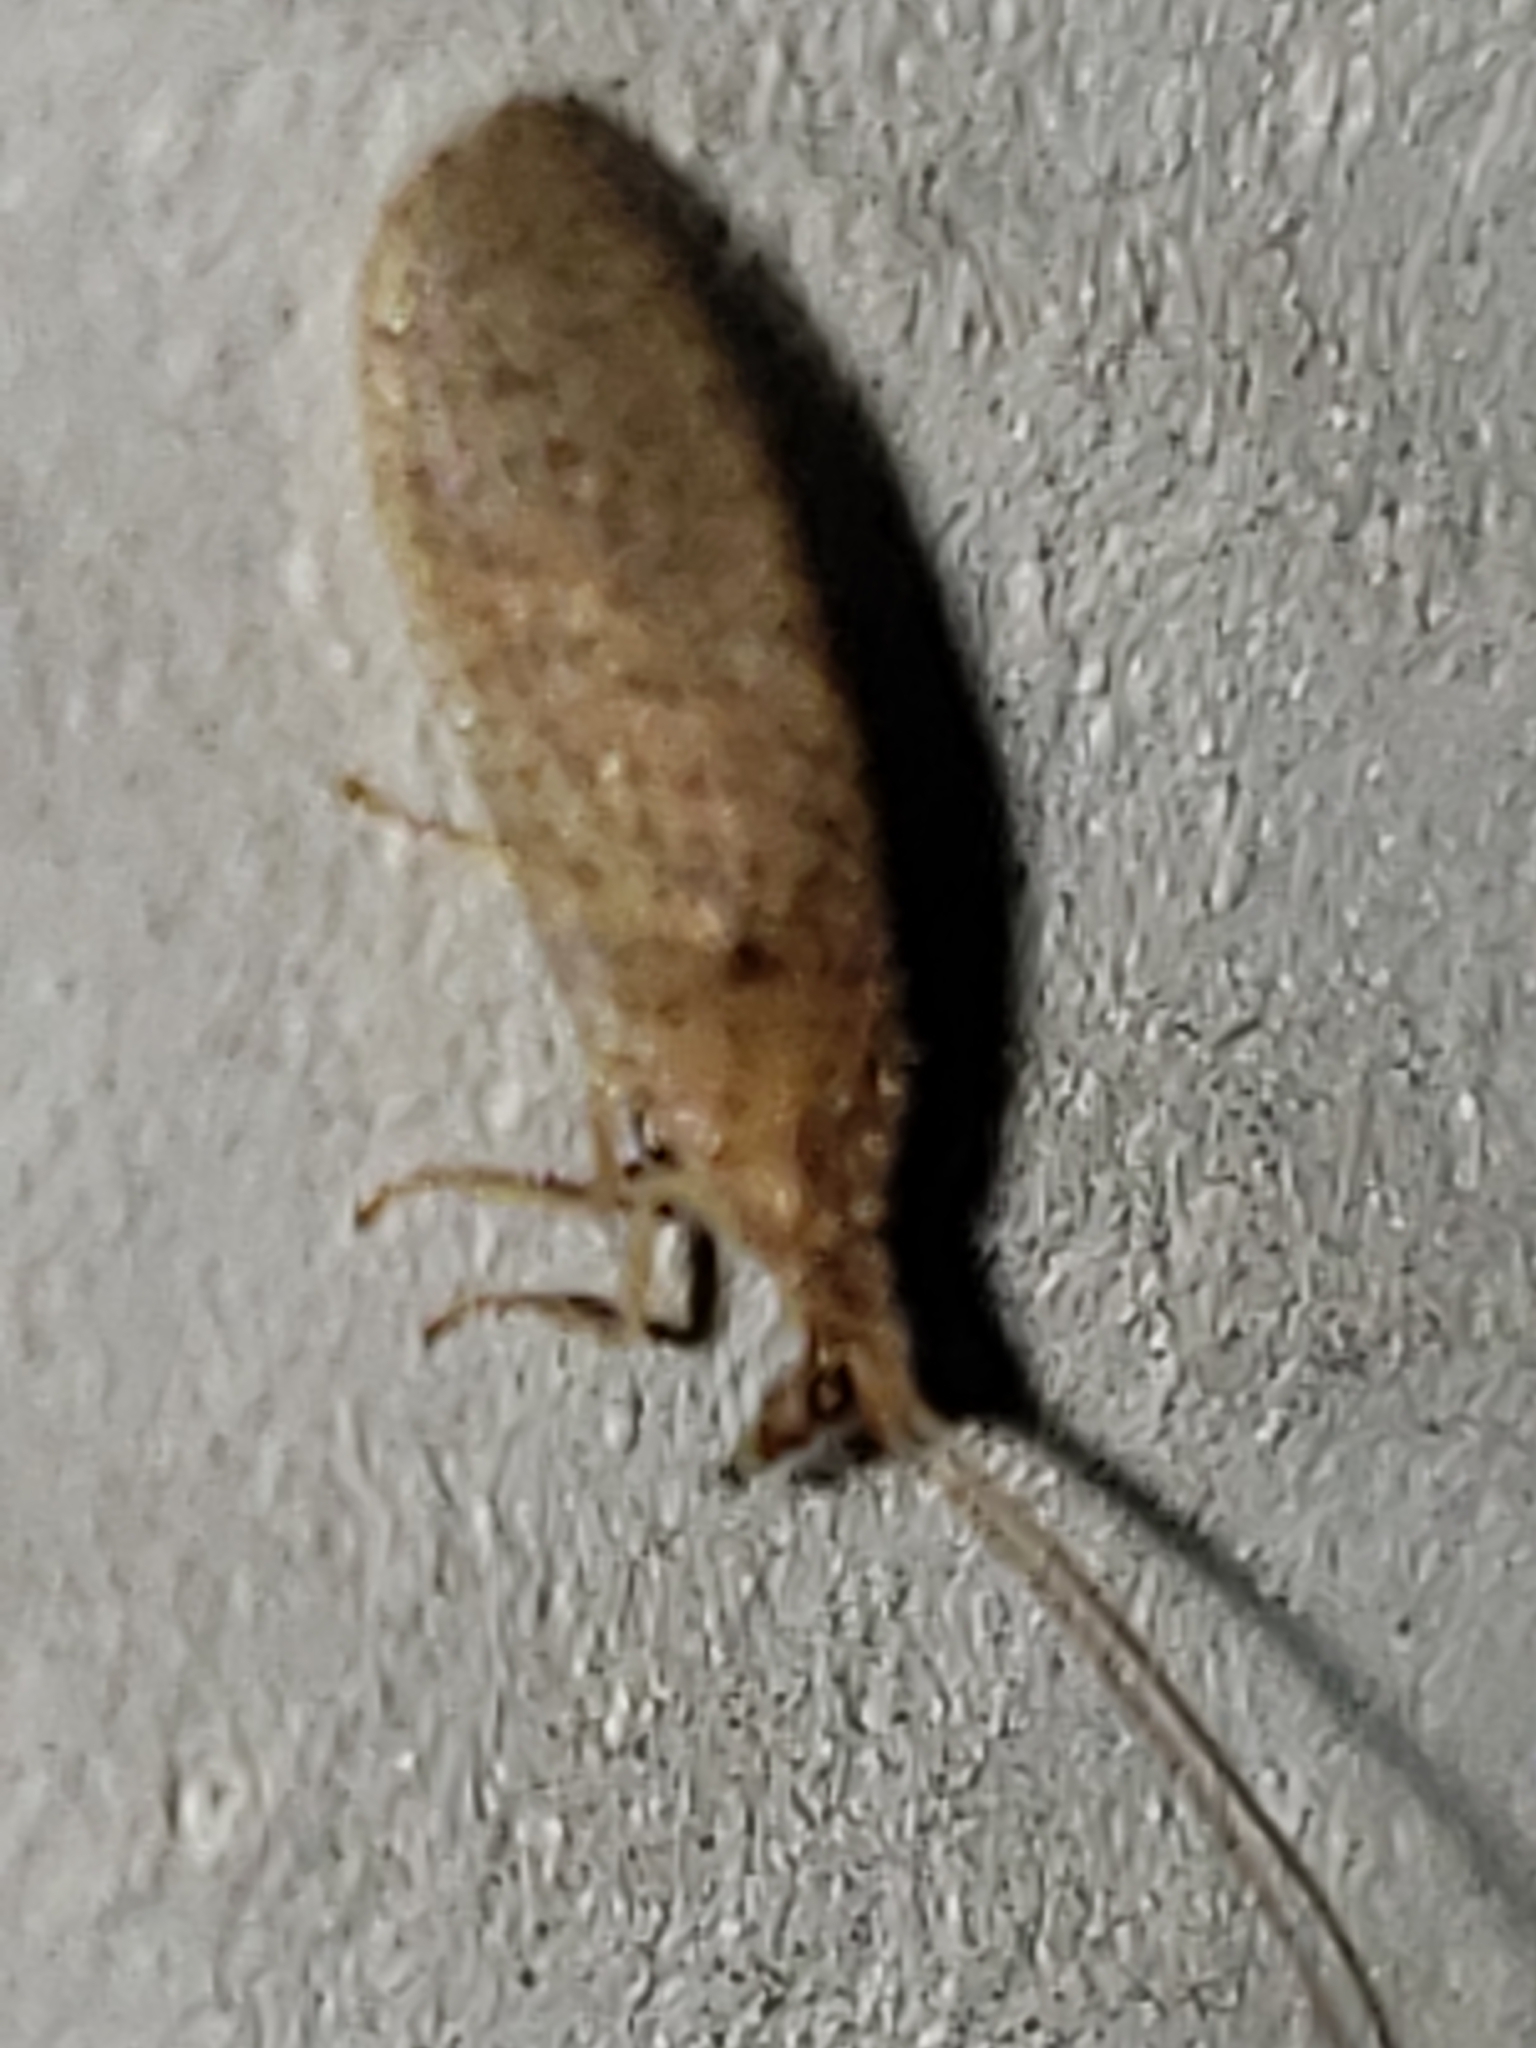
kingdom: Animalia
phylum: Arthropoda
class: Insecta
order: Neuroptera
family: Hemerobiidae
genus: Micromus
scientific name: Micromus subanticus
